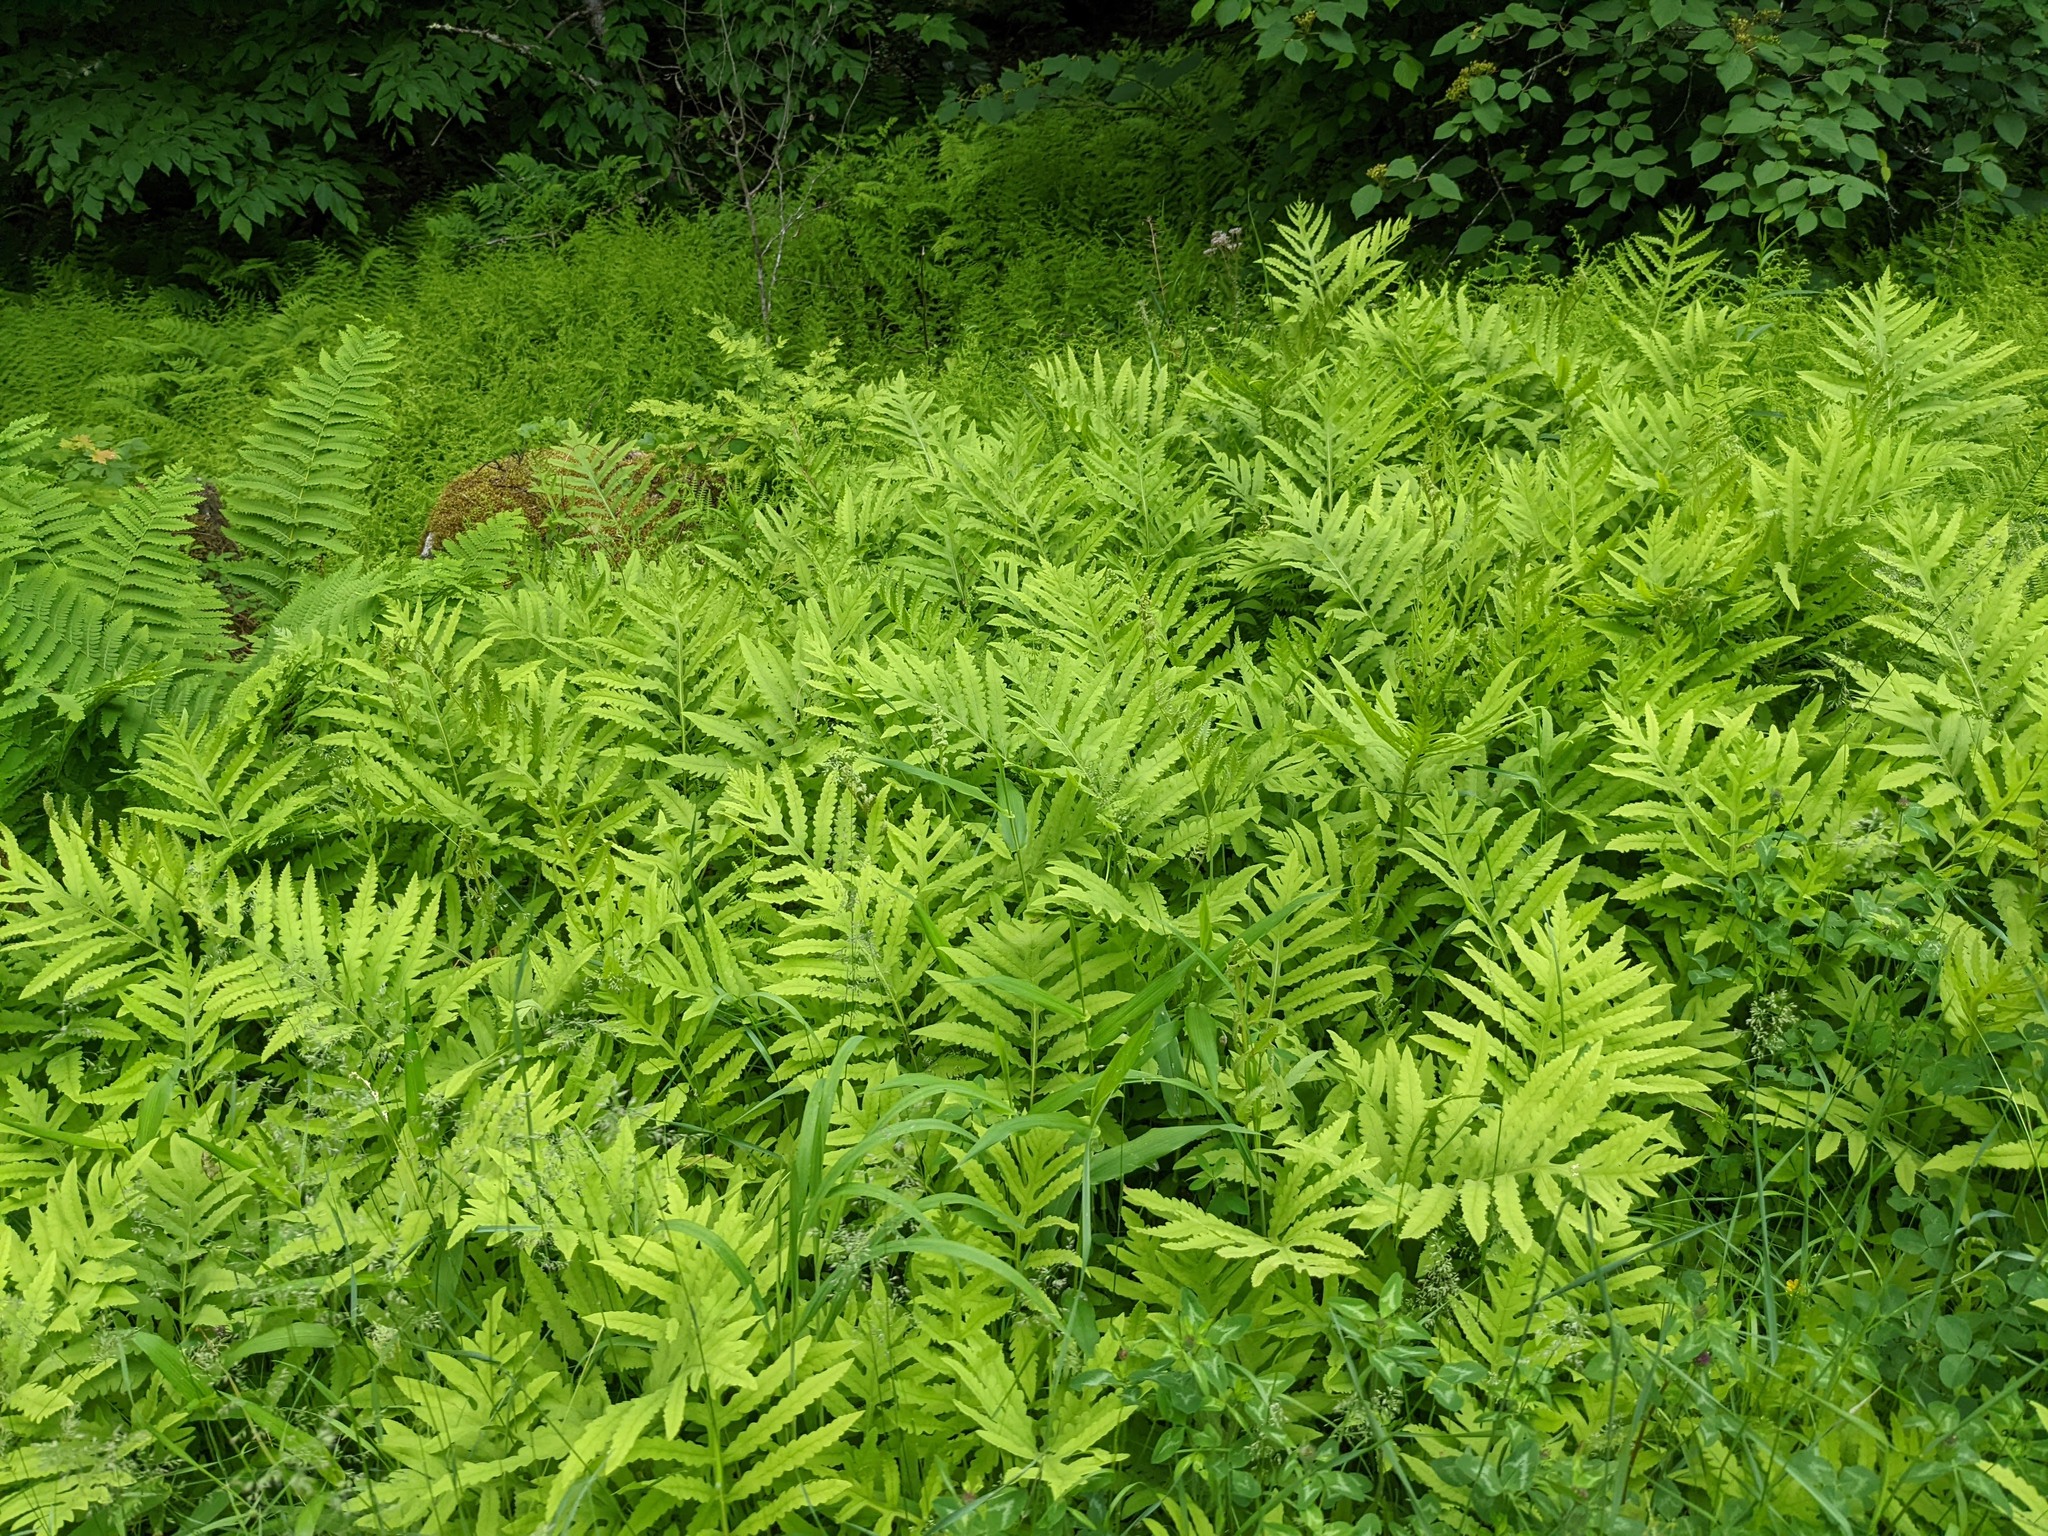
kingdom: Plantae
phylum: Tracheophyta
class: Polypodiopsida
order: Polypodiales
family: Onocleaceae
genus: Onoclea
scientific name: Onoclea sensibilis
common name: Sensitive fern
